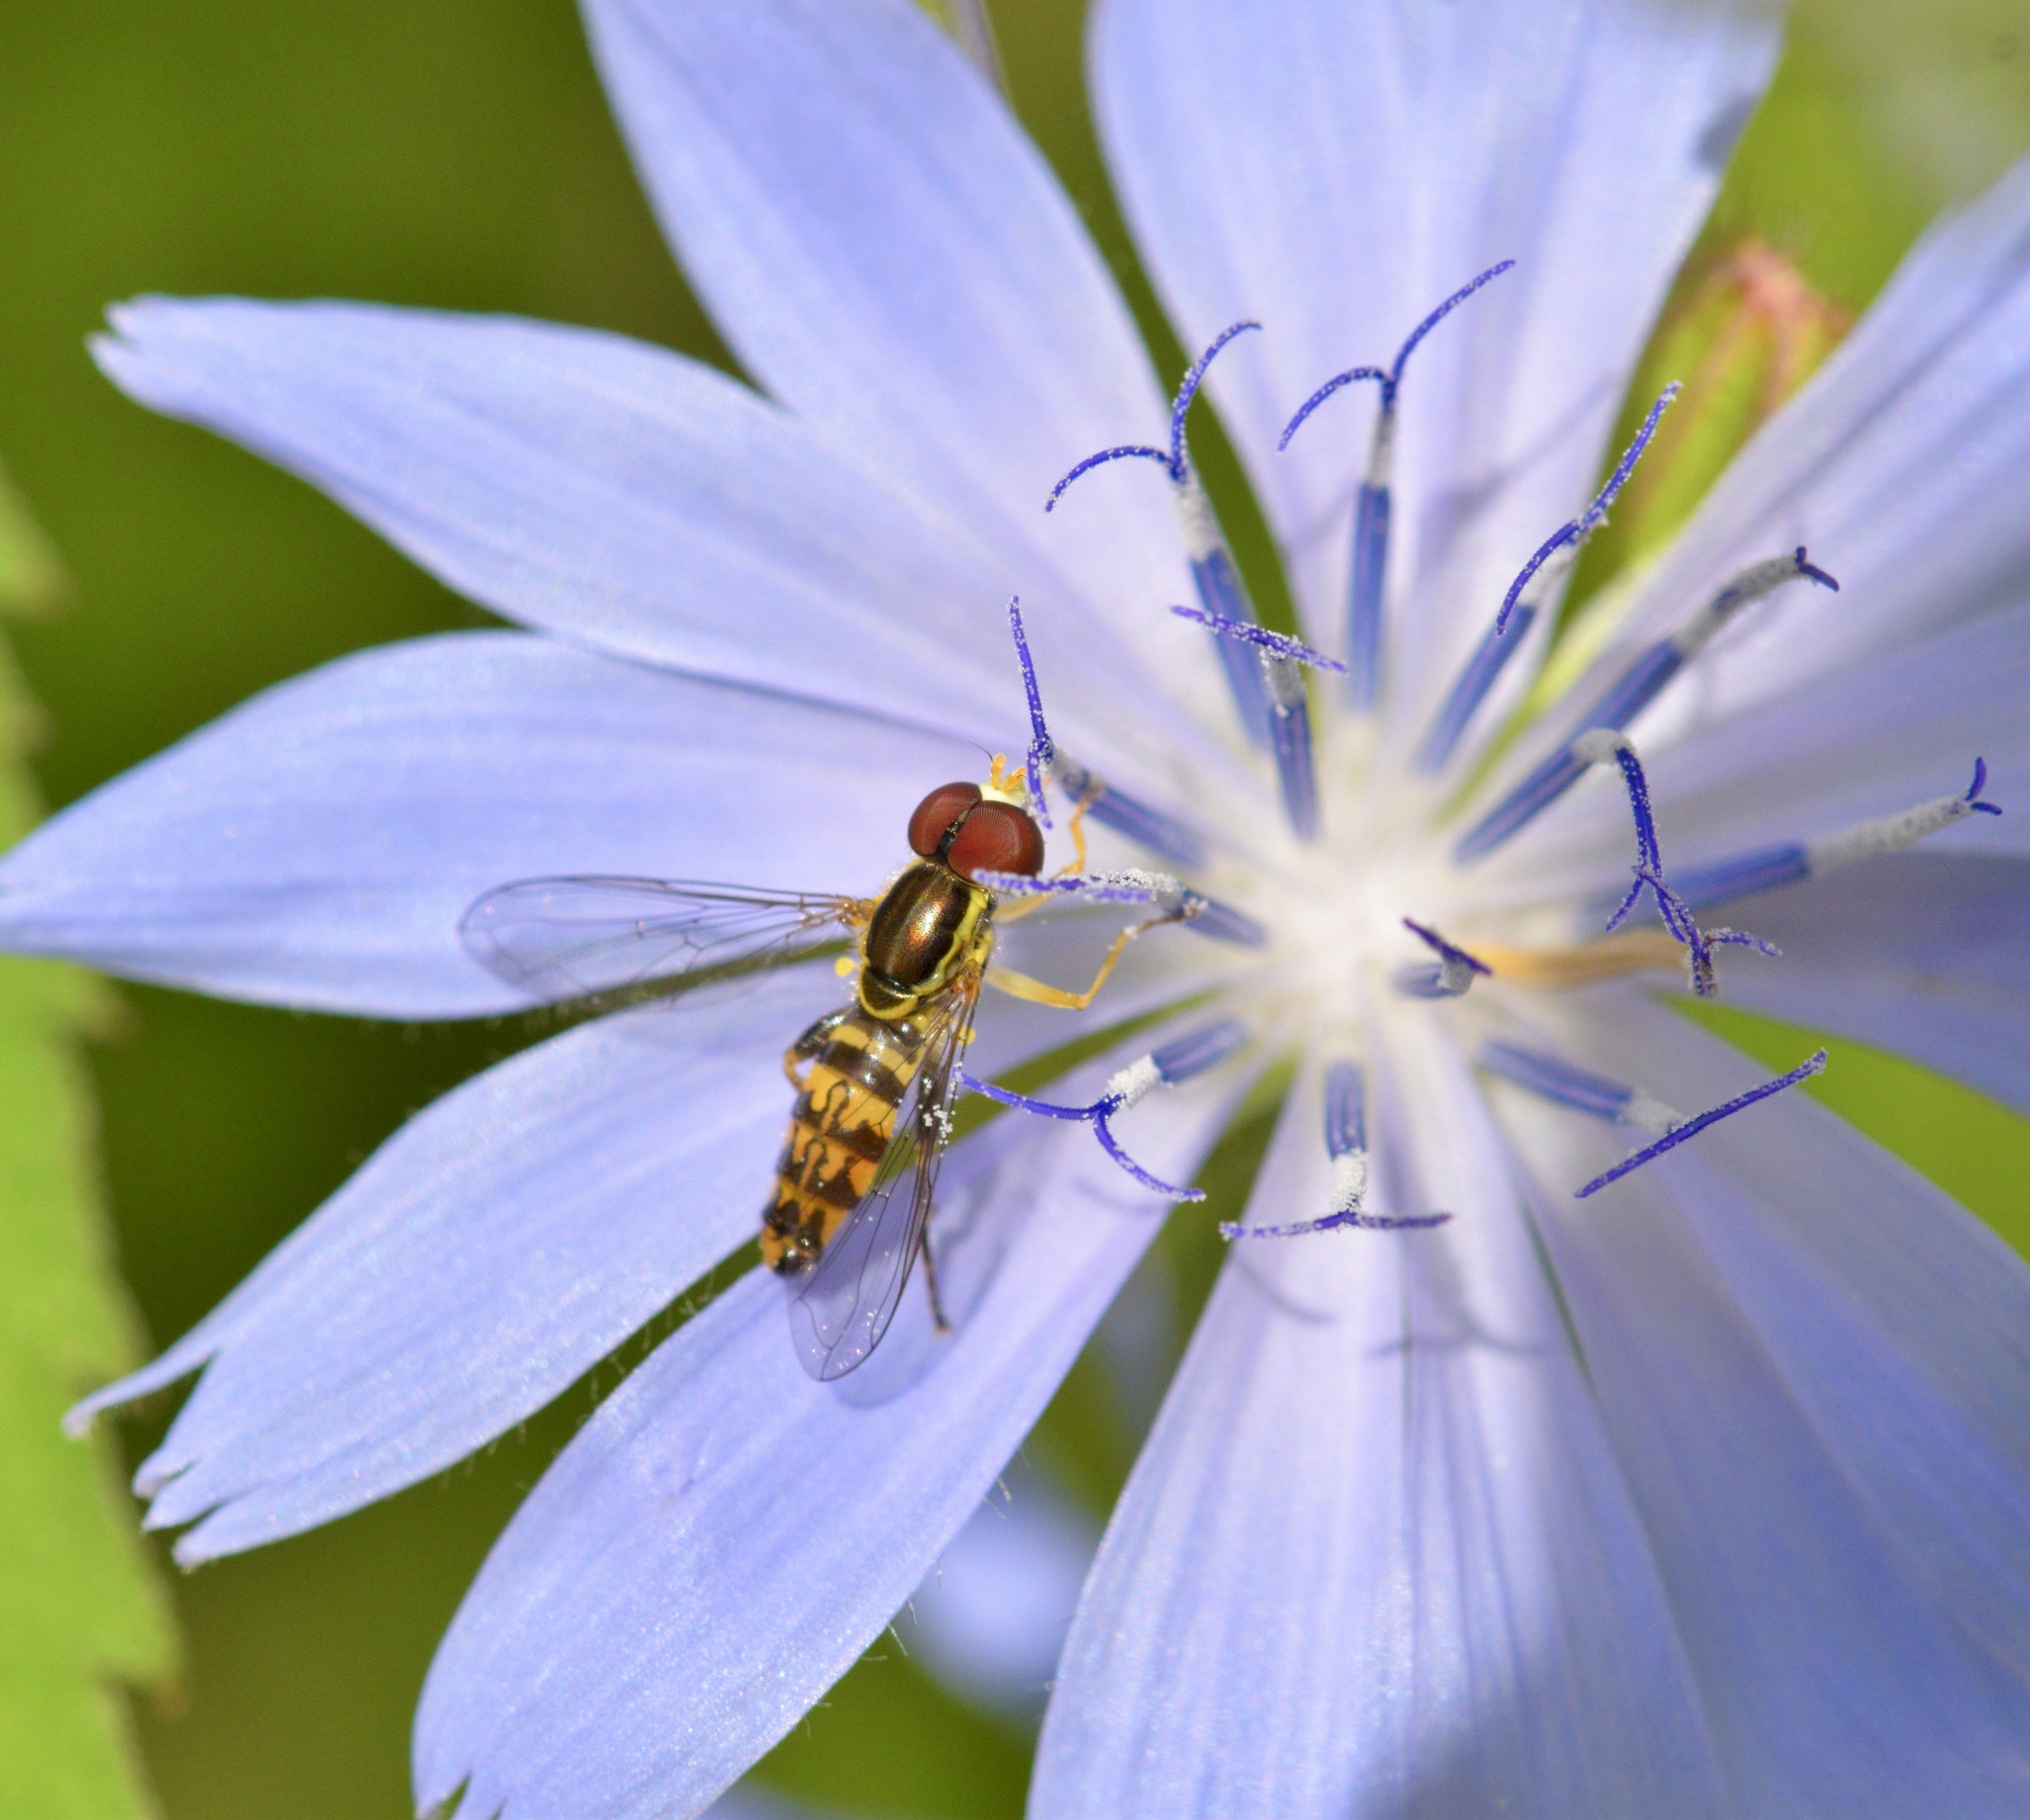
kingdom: Animalia
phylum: Arthropoda
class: Insecta
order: Diptera
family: Syrphidae
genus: Toxomerus
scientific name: Toxomerus geminatus
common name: Eastern calligrapher
